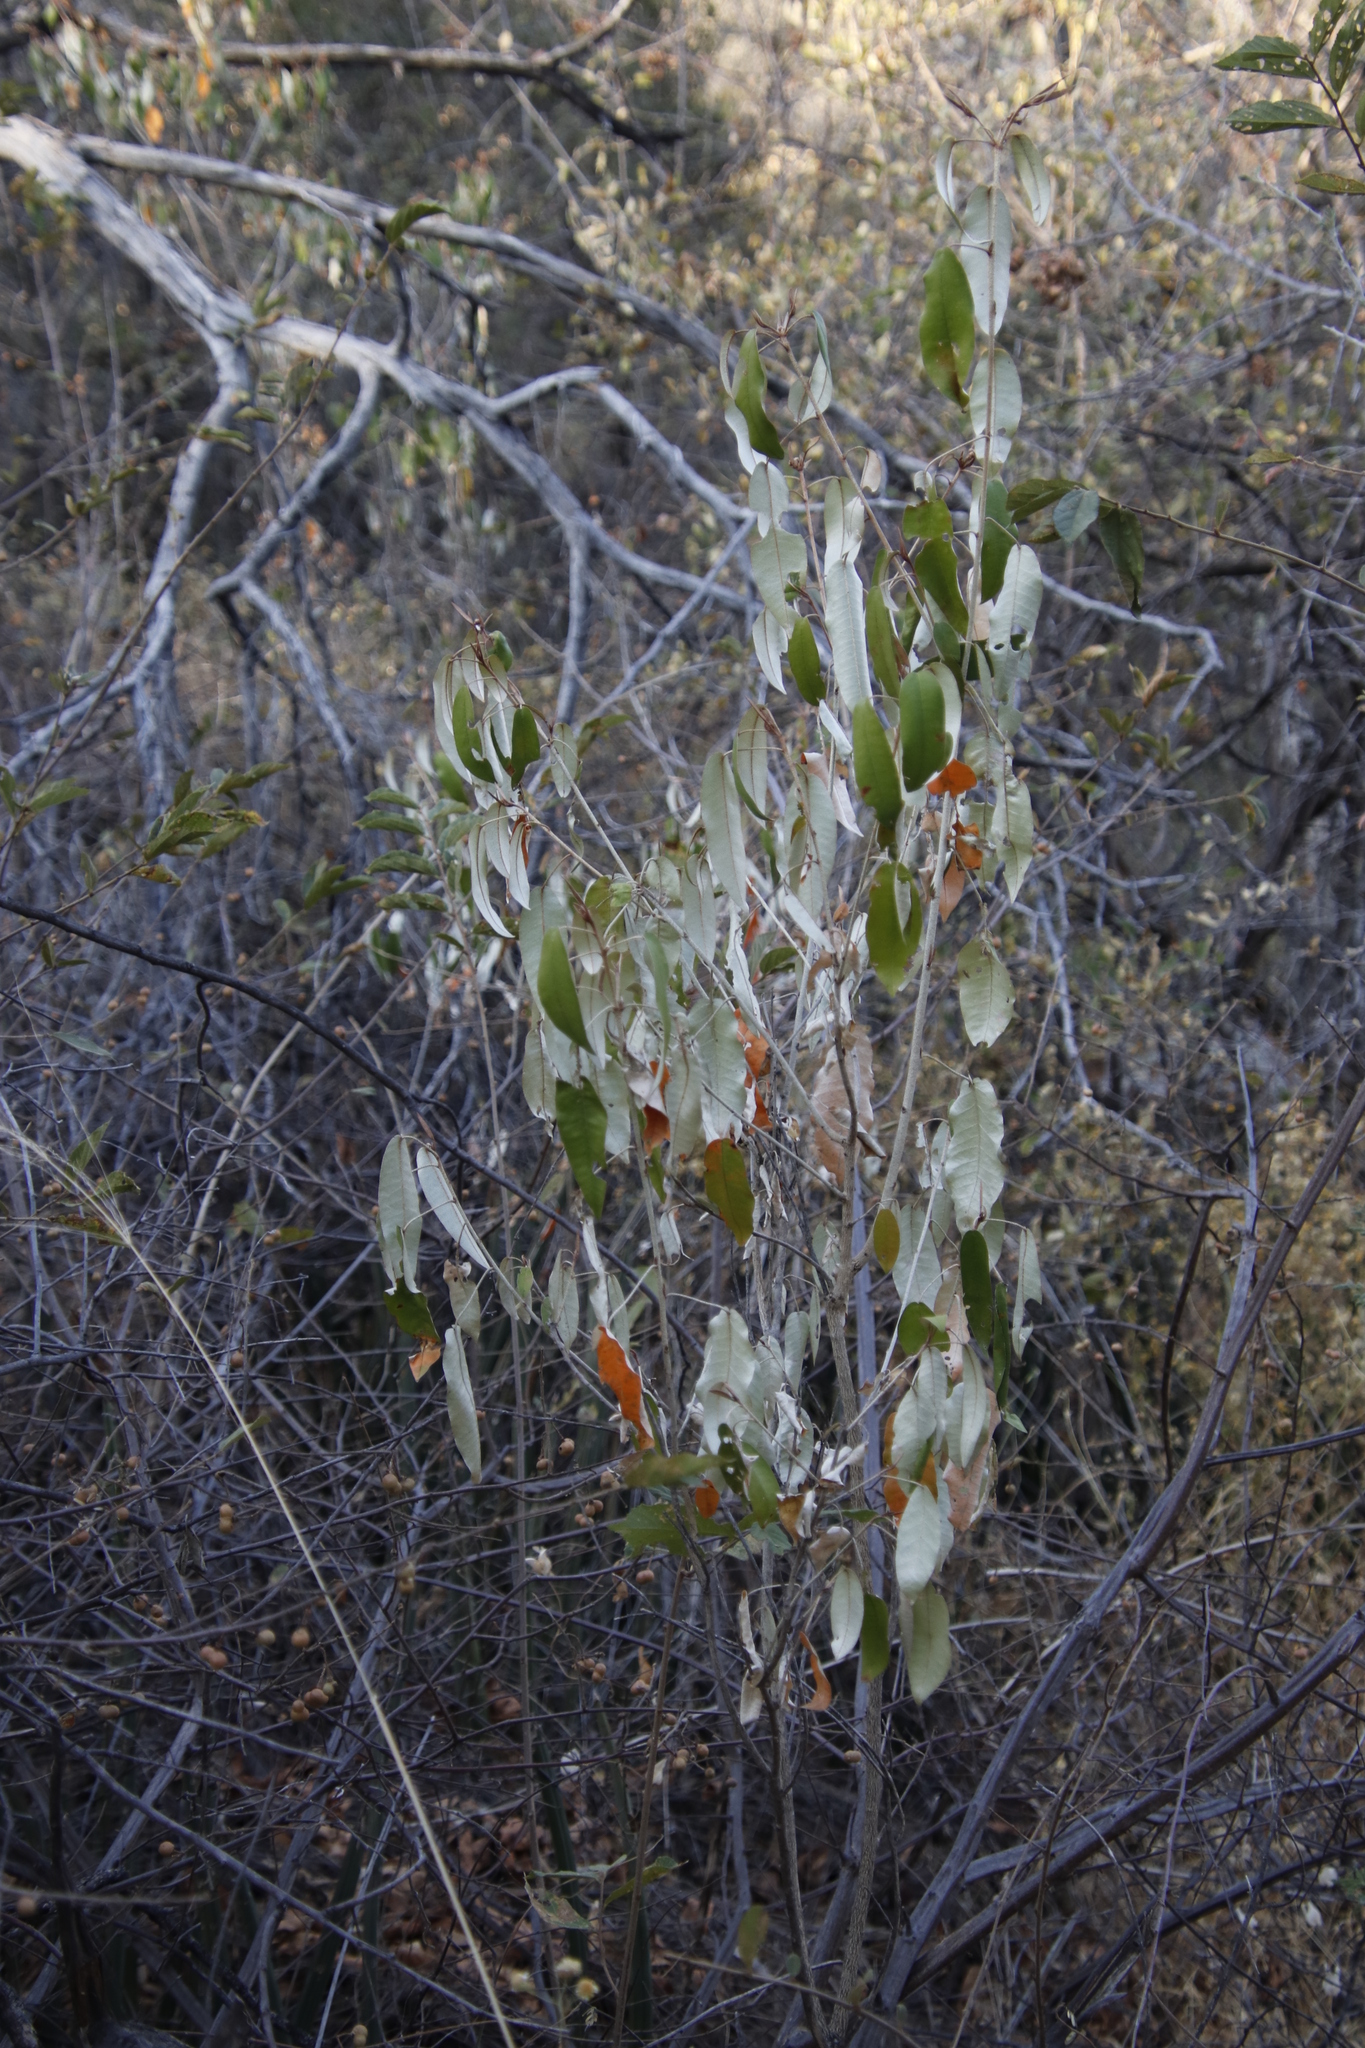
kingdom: Plantae
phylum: Tracheophyta
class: Magnoliopsida
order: Malpighiales
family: Euphorbiaceae
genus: Croton
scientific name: Croton gratissimus
